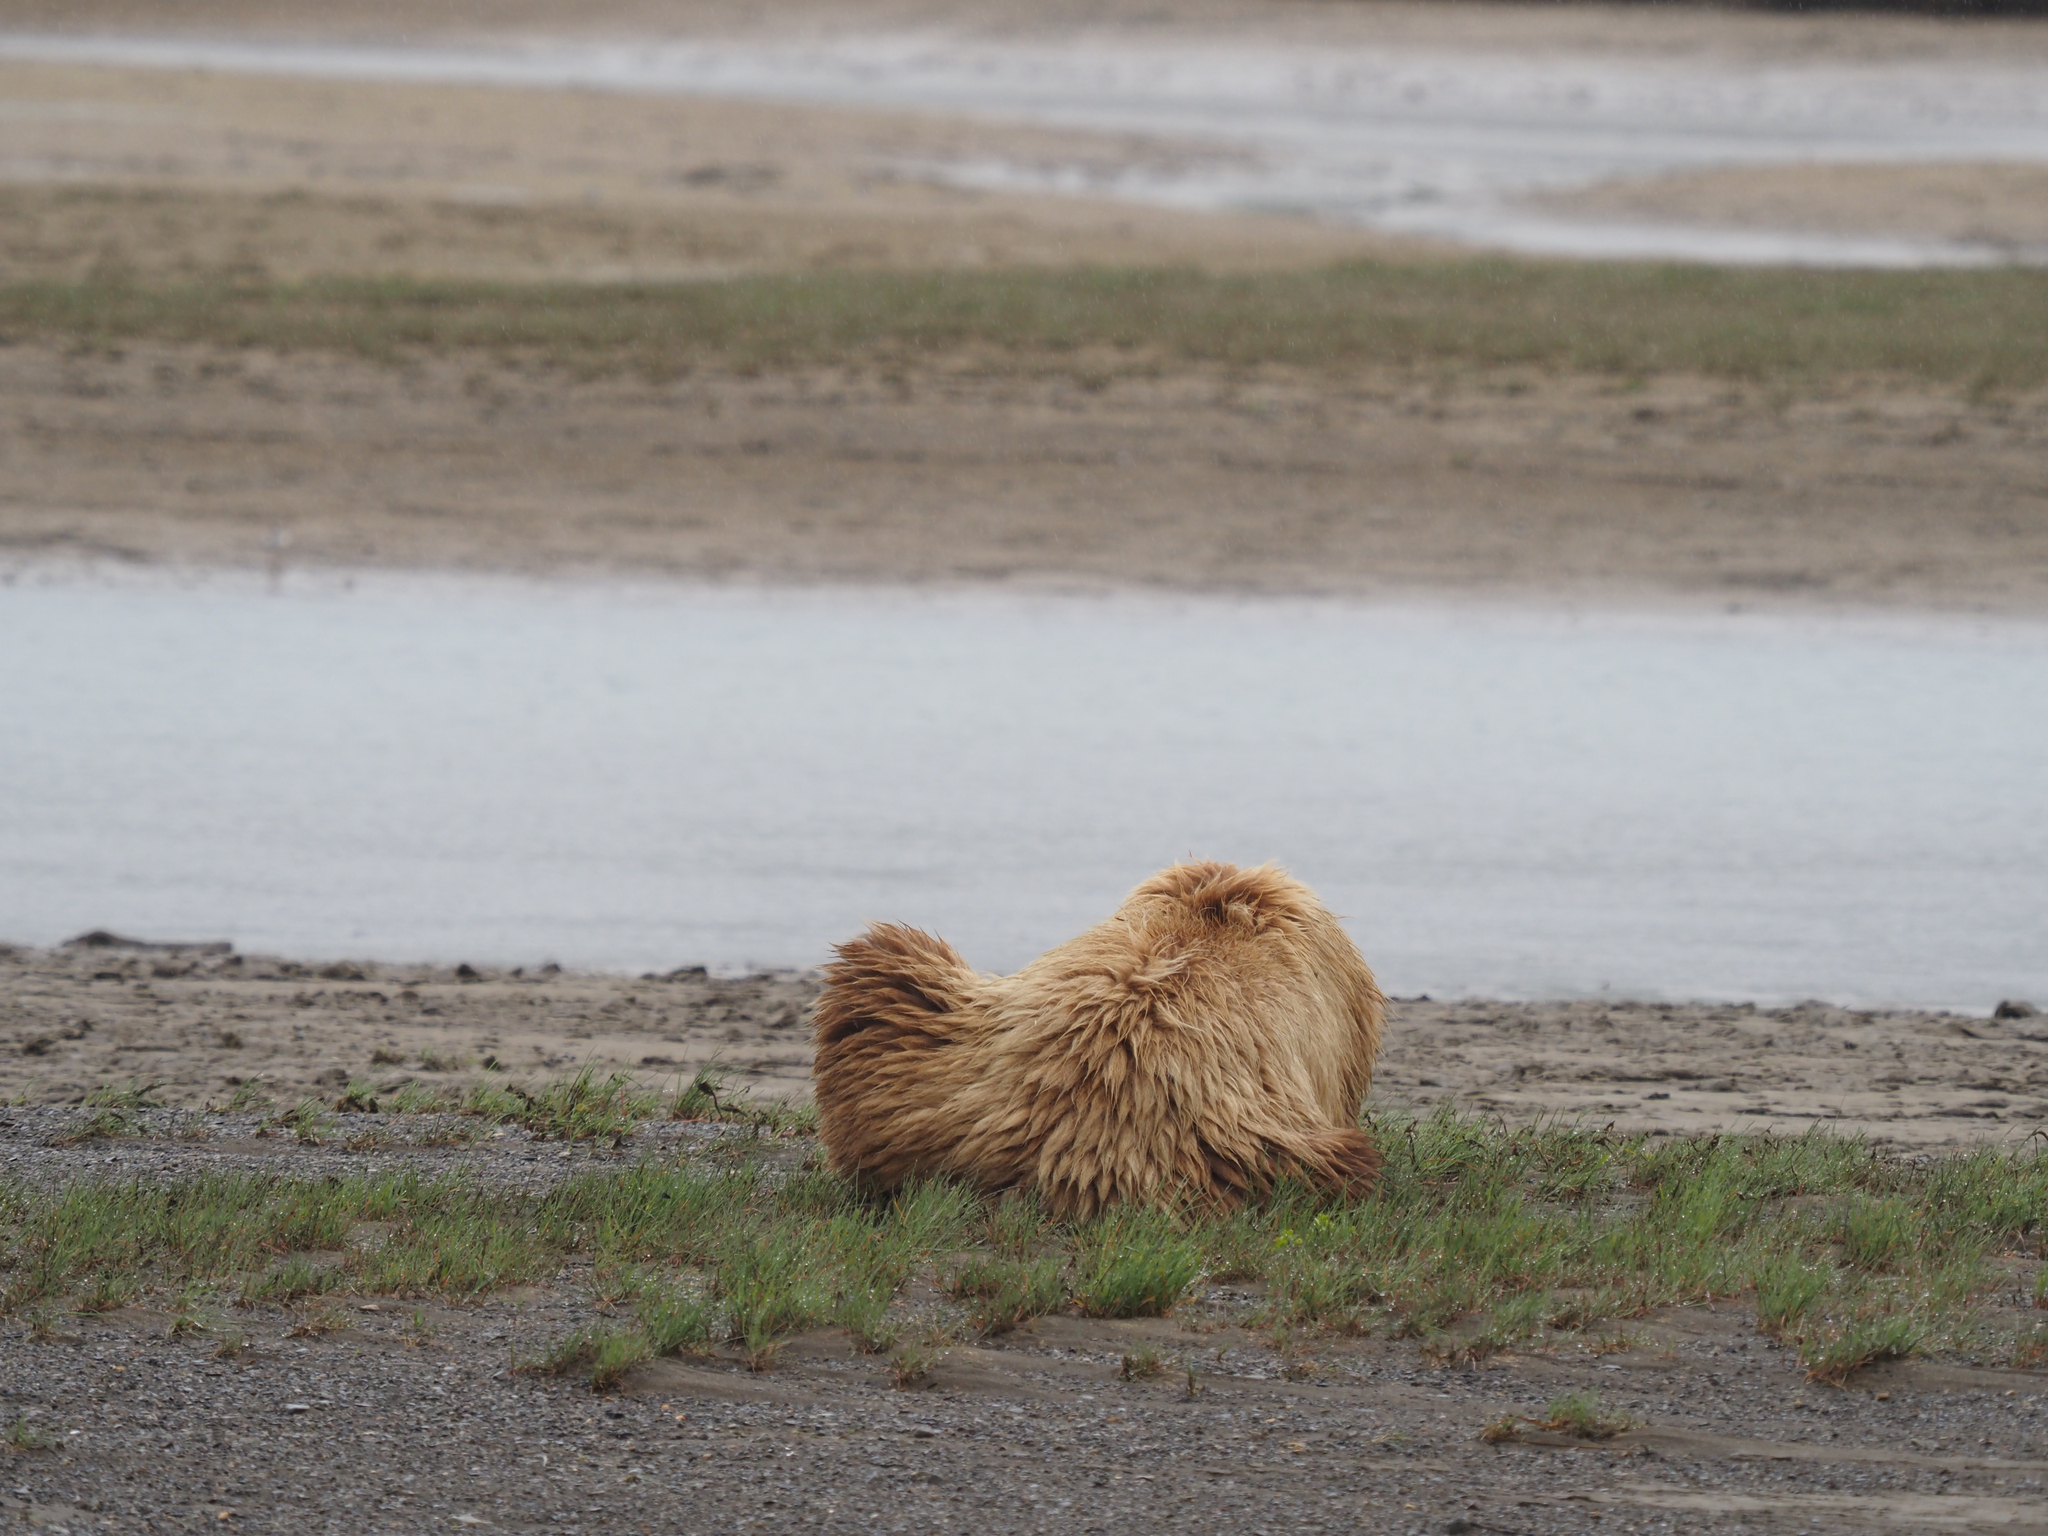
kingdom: Animalia
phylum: Chordata
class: Mammalia
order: Carnivora
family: Ursidae
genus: Ursus
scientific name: Ursus arctos
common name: Brown bear
